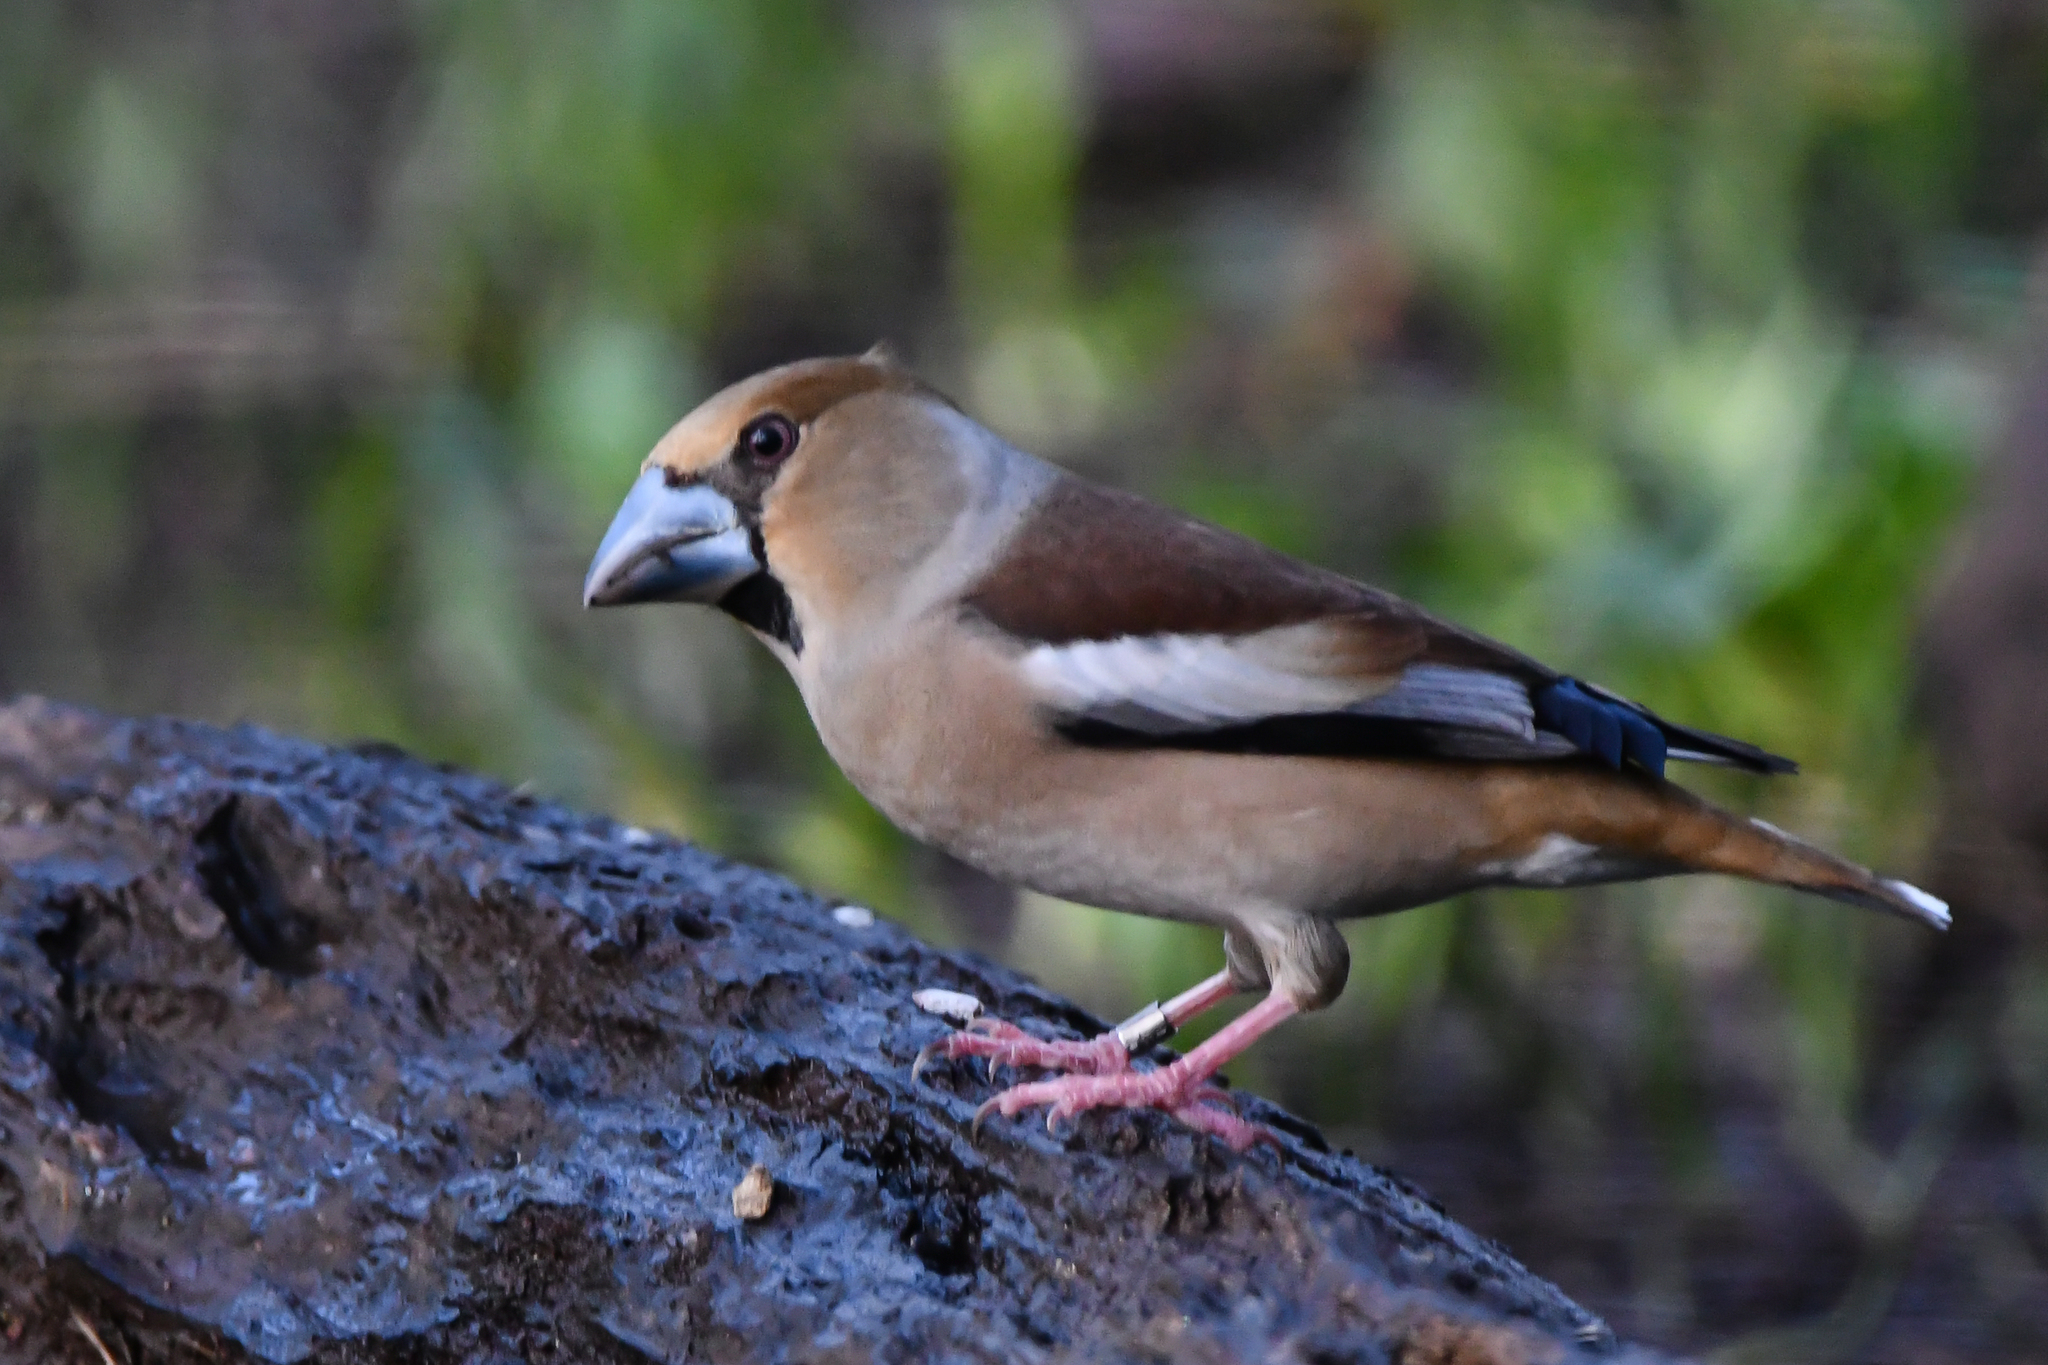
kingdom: Animalia
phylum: Chordata
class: Aves
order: Passeriformes
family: Fringillidae
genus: Coccothraustes
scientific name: Coccothraustes coccothraustes
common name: Hawfinch
